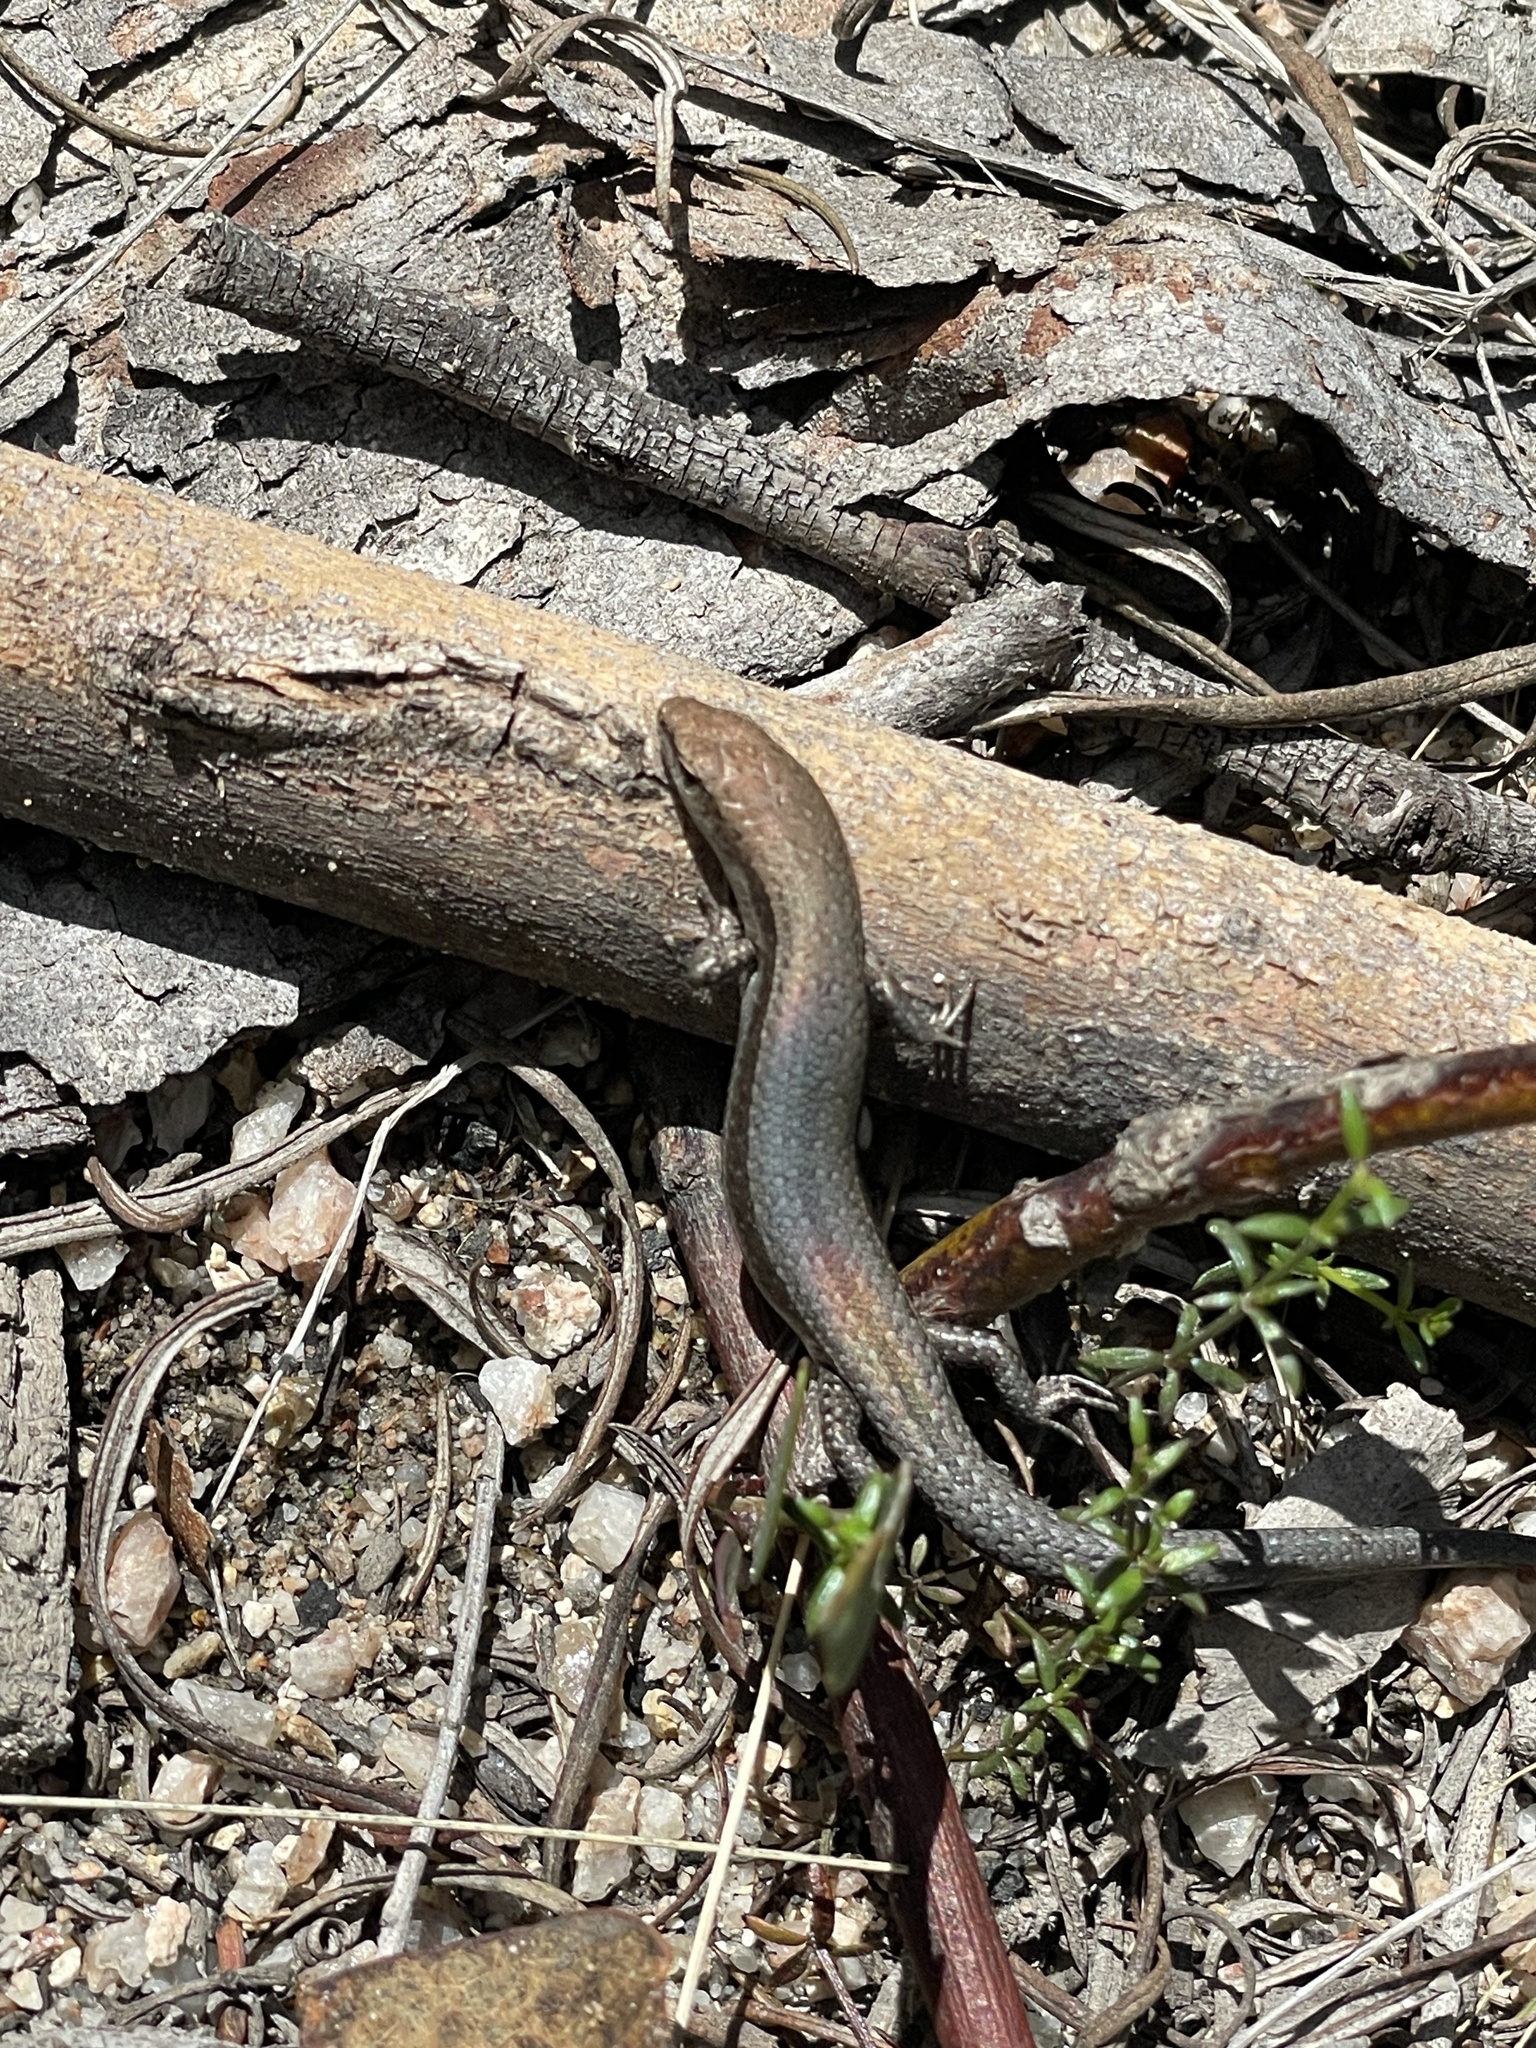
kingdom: Animalia
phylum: Chordata
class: Squamata
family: Scincidae
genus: Lampropholis
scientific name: Lampropholis guichenoti
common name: Garden skink
